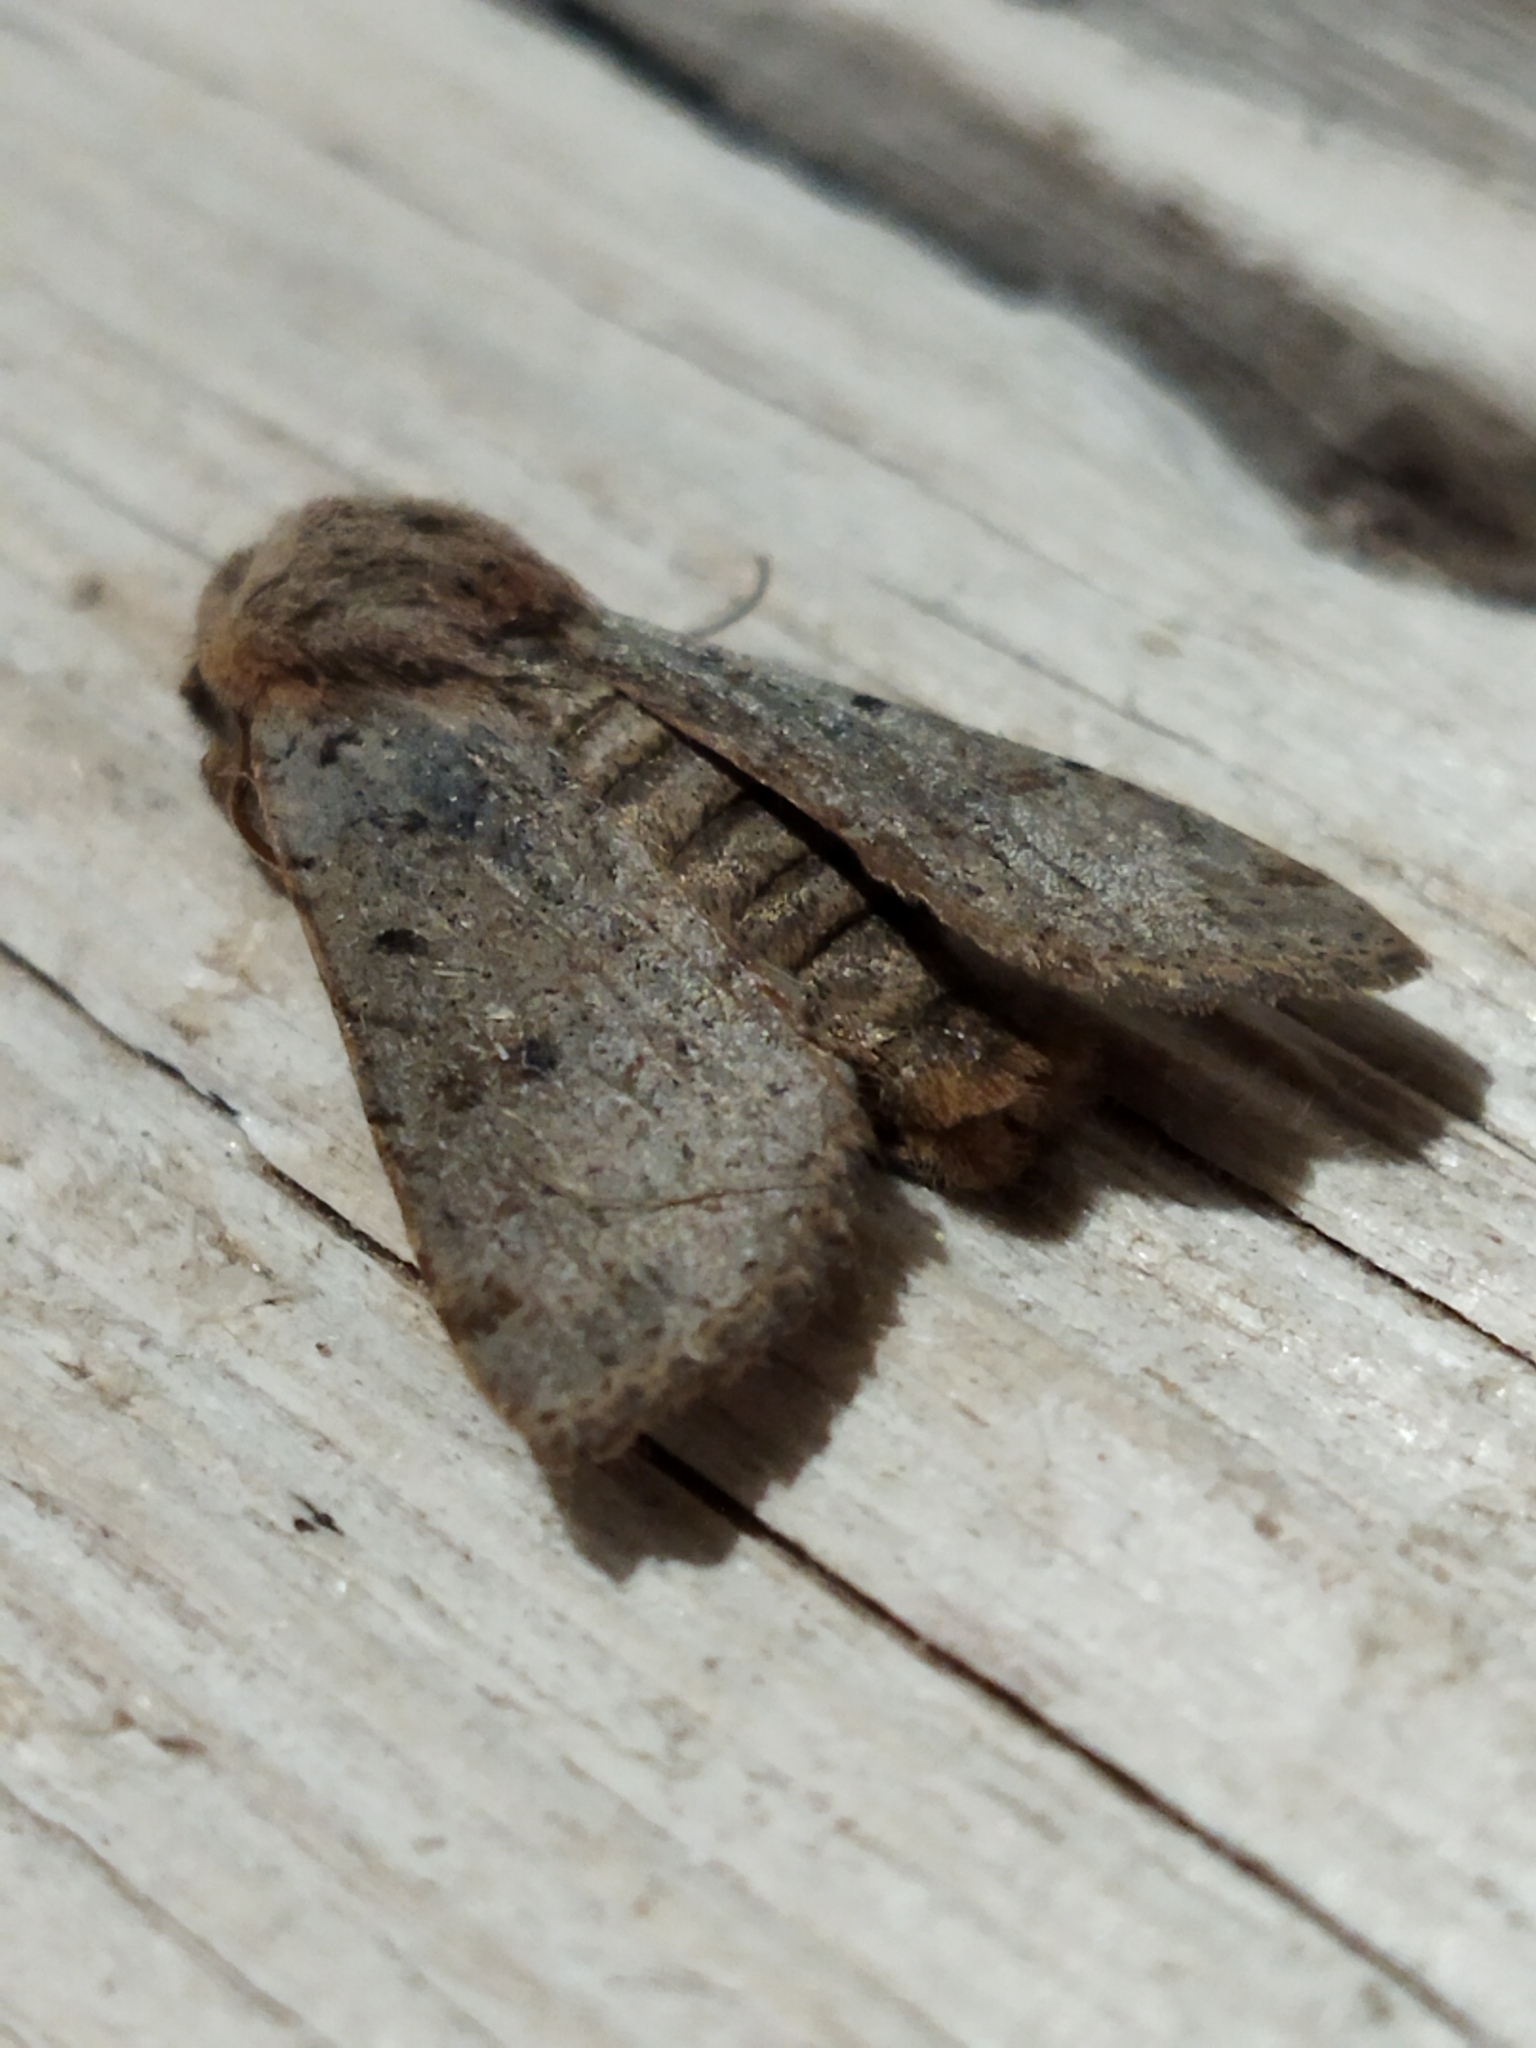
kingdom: Animalia
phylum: Arthropoda
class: Insecta
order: Lepidoptera
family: Noctuidae
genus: Agrochola
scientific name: Agrochola lychnidis
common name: Beaded chestnut
